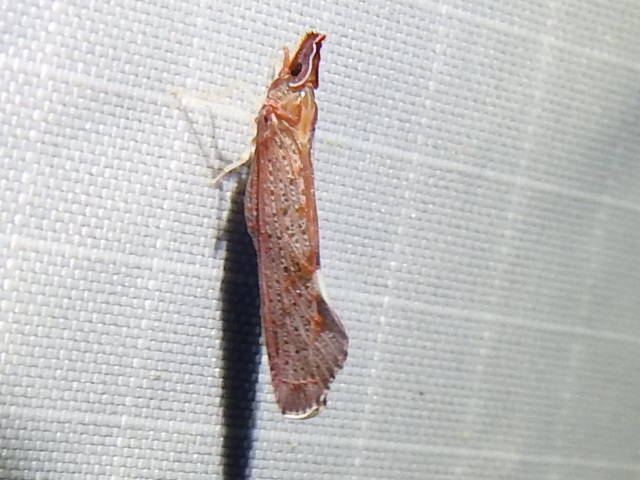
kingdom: Animalia
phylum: Arthropoda
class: Insecta
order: Hemiptera
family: Derbidae
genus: Apache
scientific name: Apache degeeri
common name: Red-fanned planthopper
